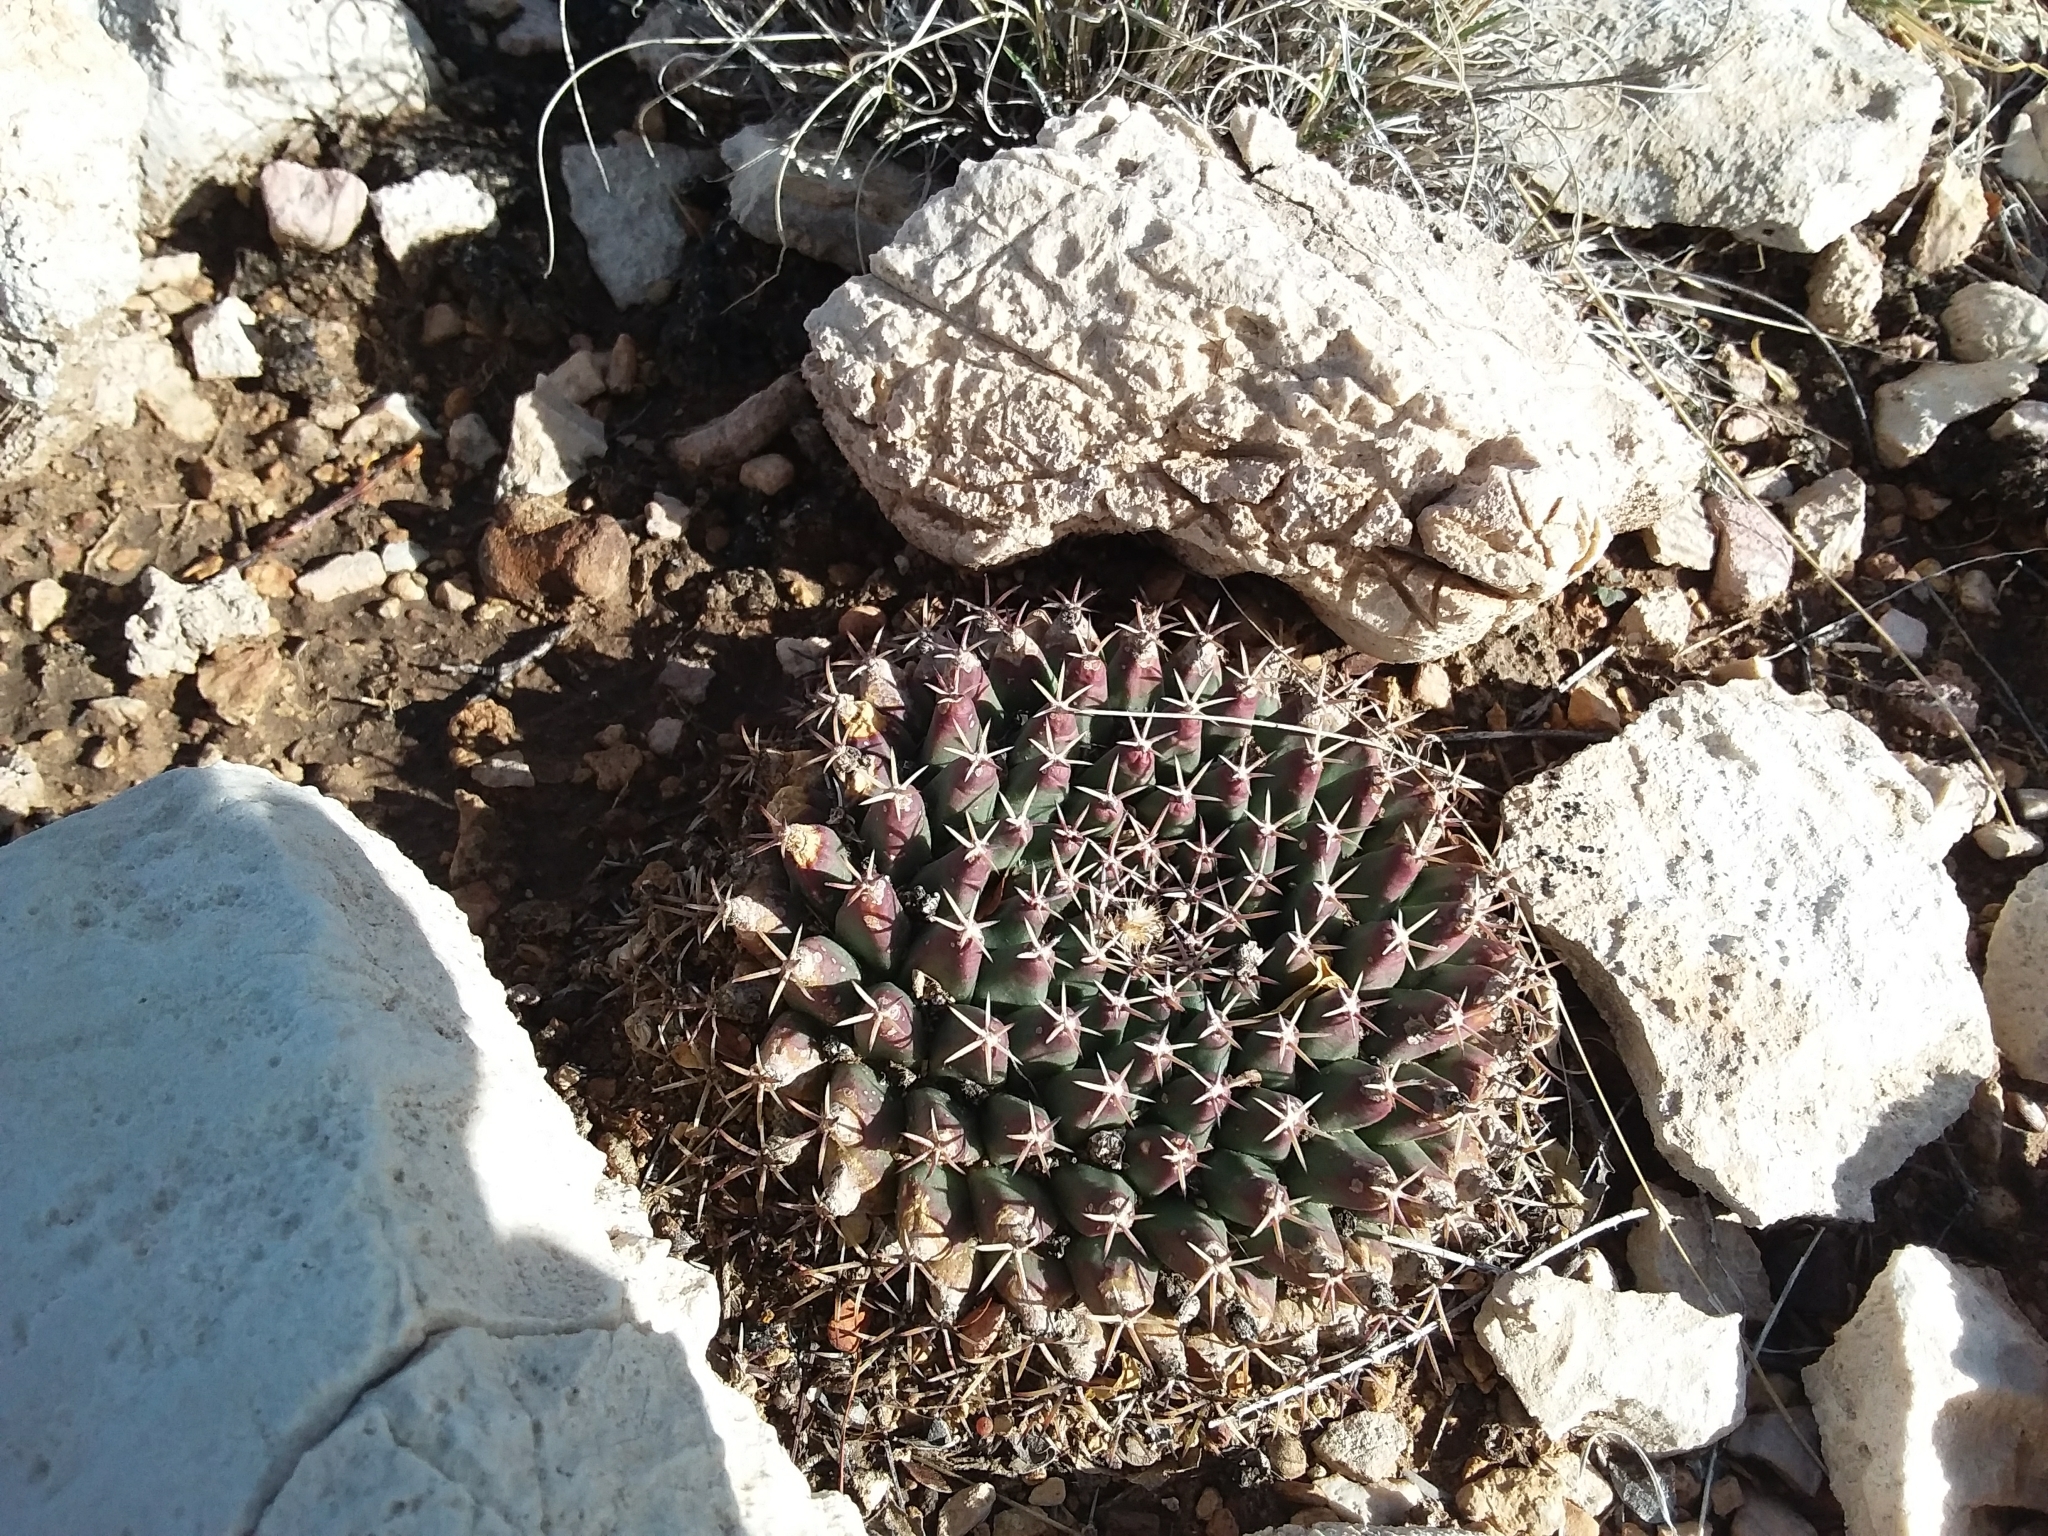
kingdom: Plantae
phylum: Tracheophyta
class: Magnoliopsida
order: Caryophyllales
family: Cactaceae
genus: Mammillaria
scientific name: Mammillaria heyderi
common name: Little nipple cactus
